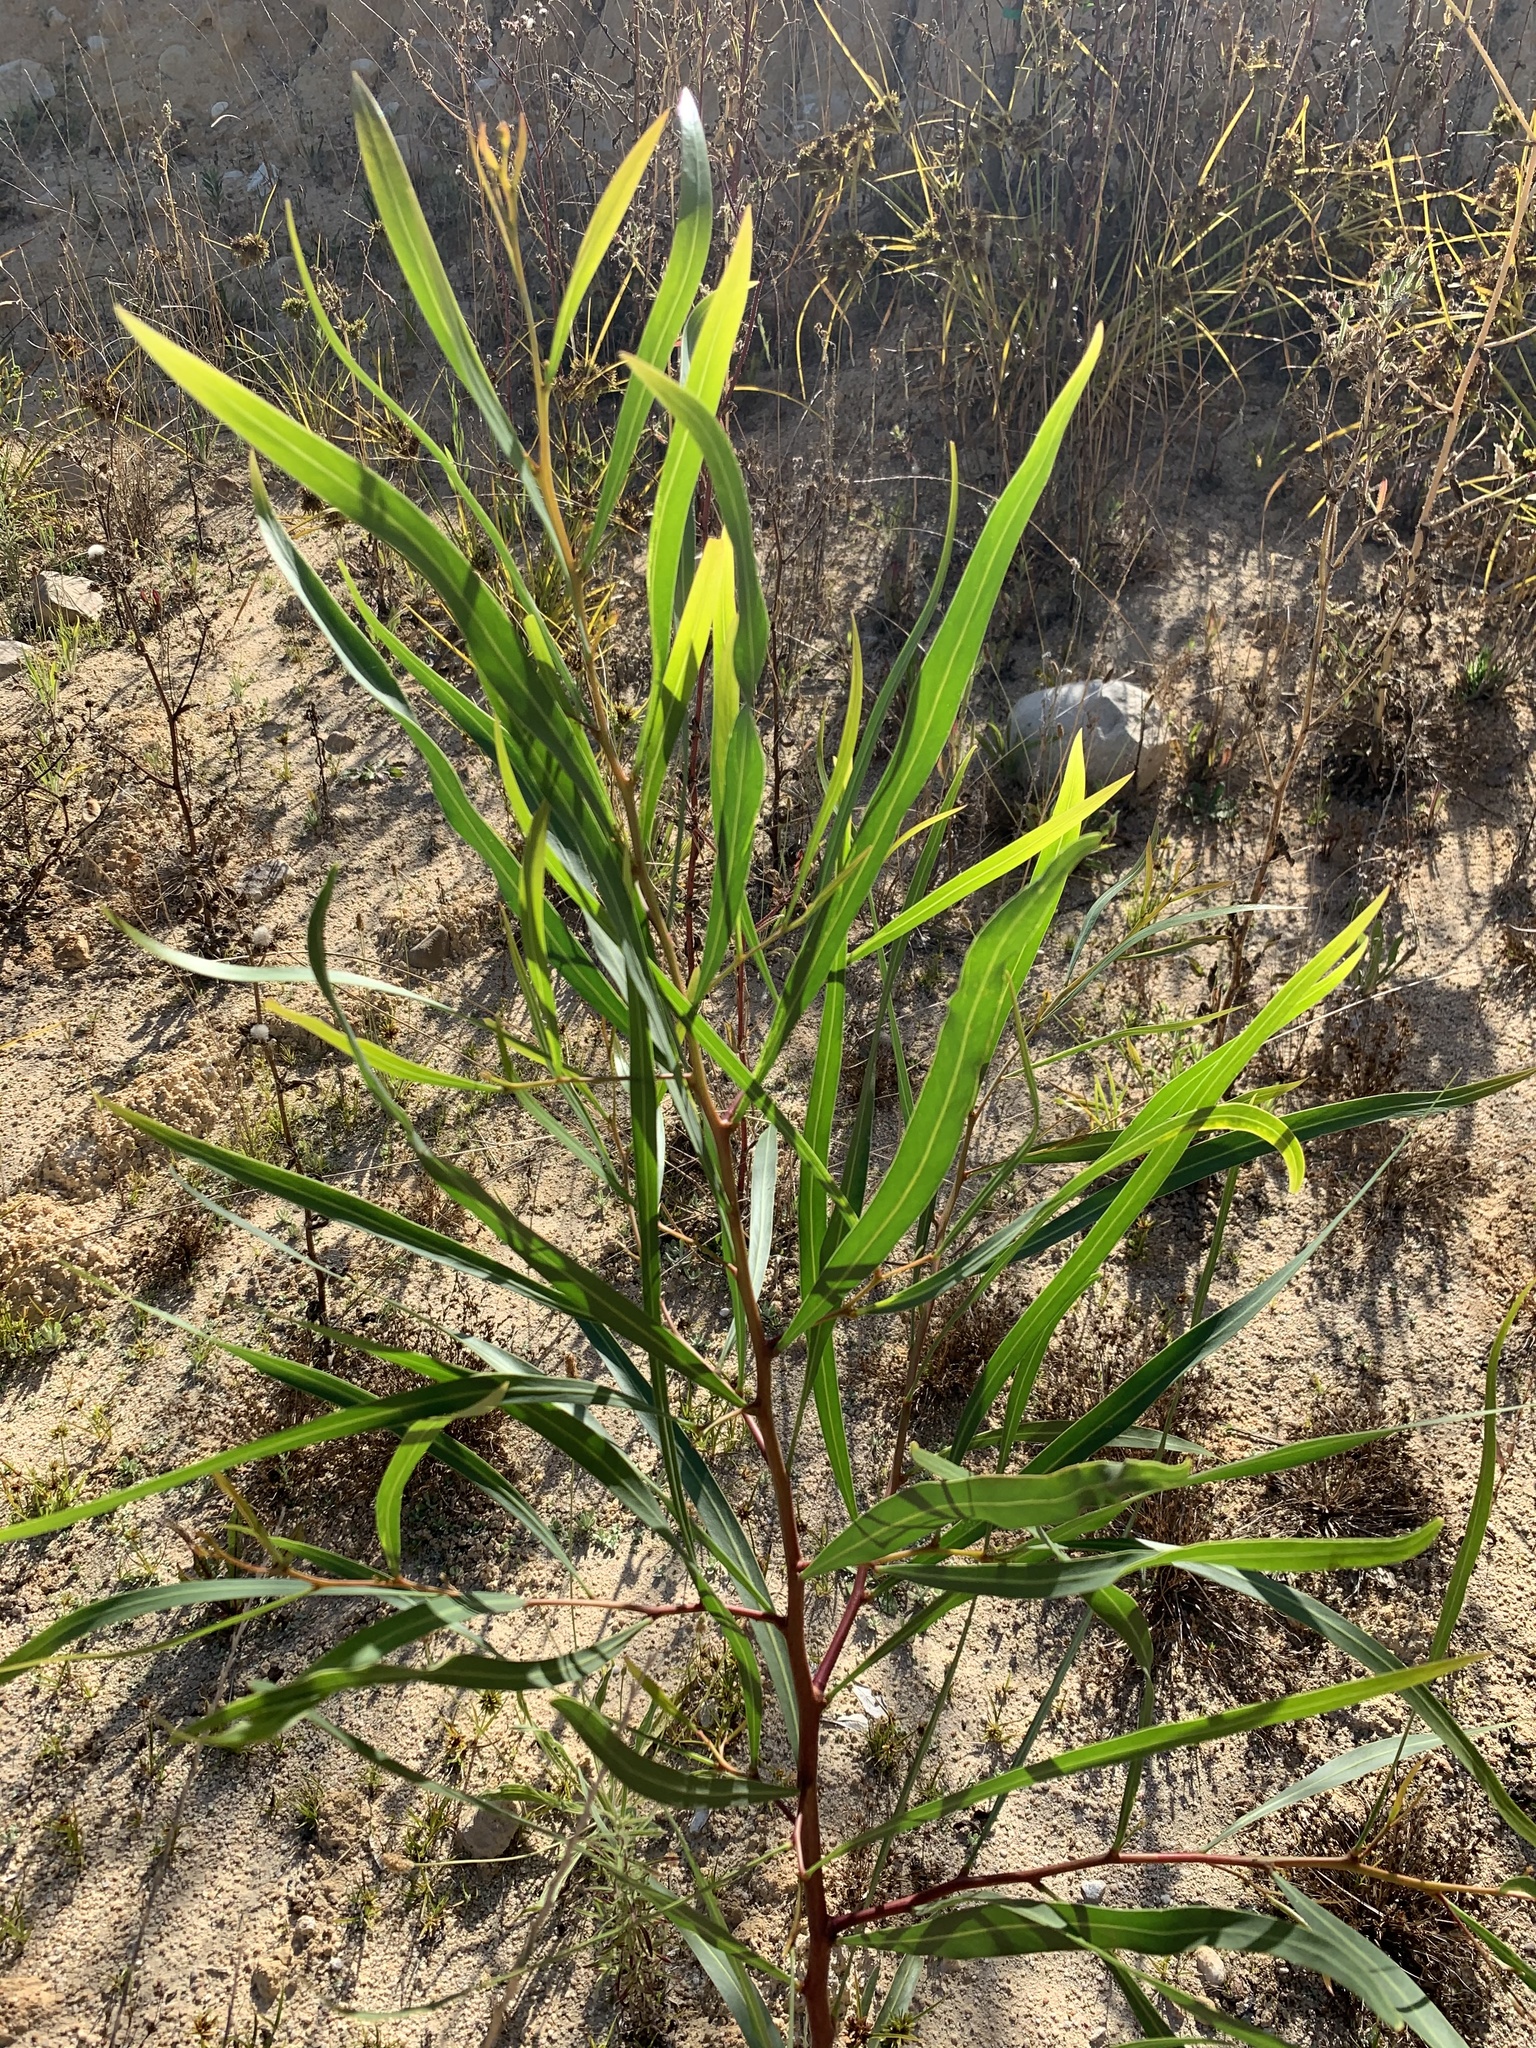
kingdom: Plantae
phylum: Tracheophyta
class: Magnoliopsida
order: Fabales
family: Fabaceae
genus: Acacia
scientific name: Acacia saligna
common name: Orange wattle
